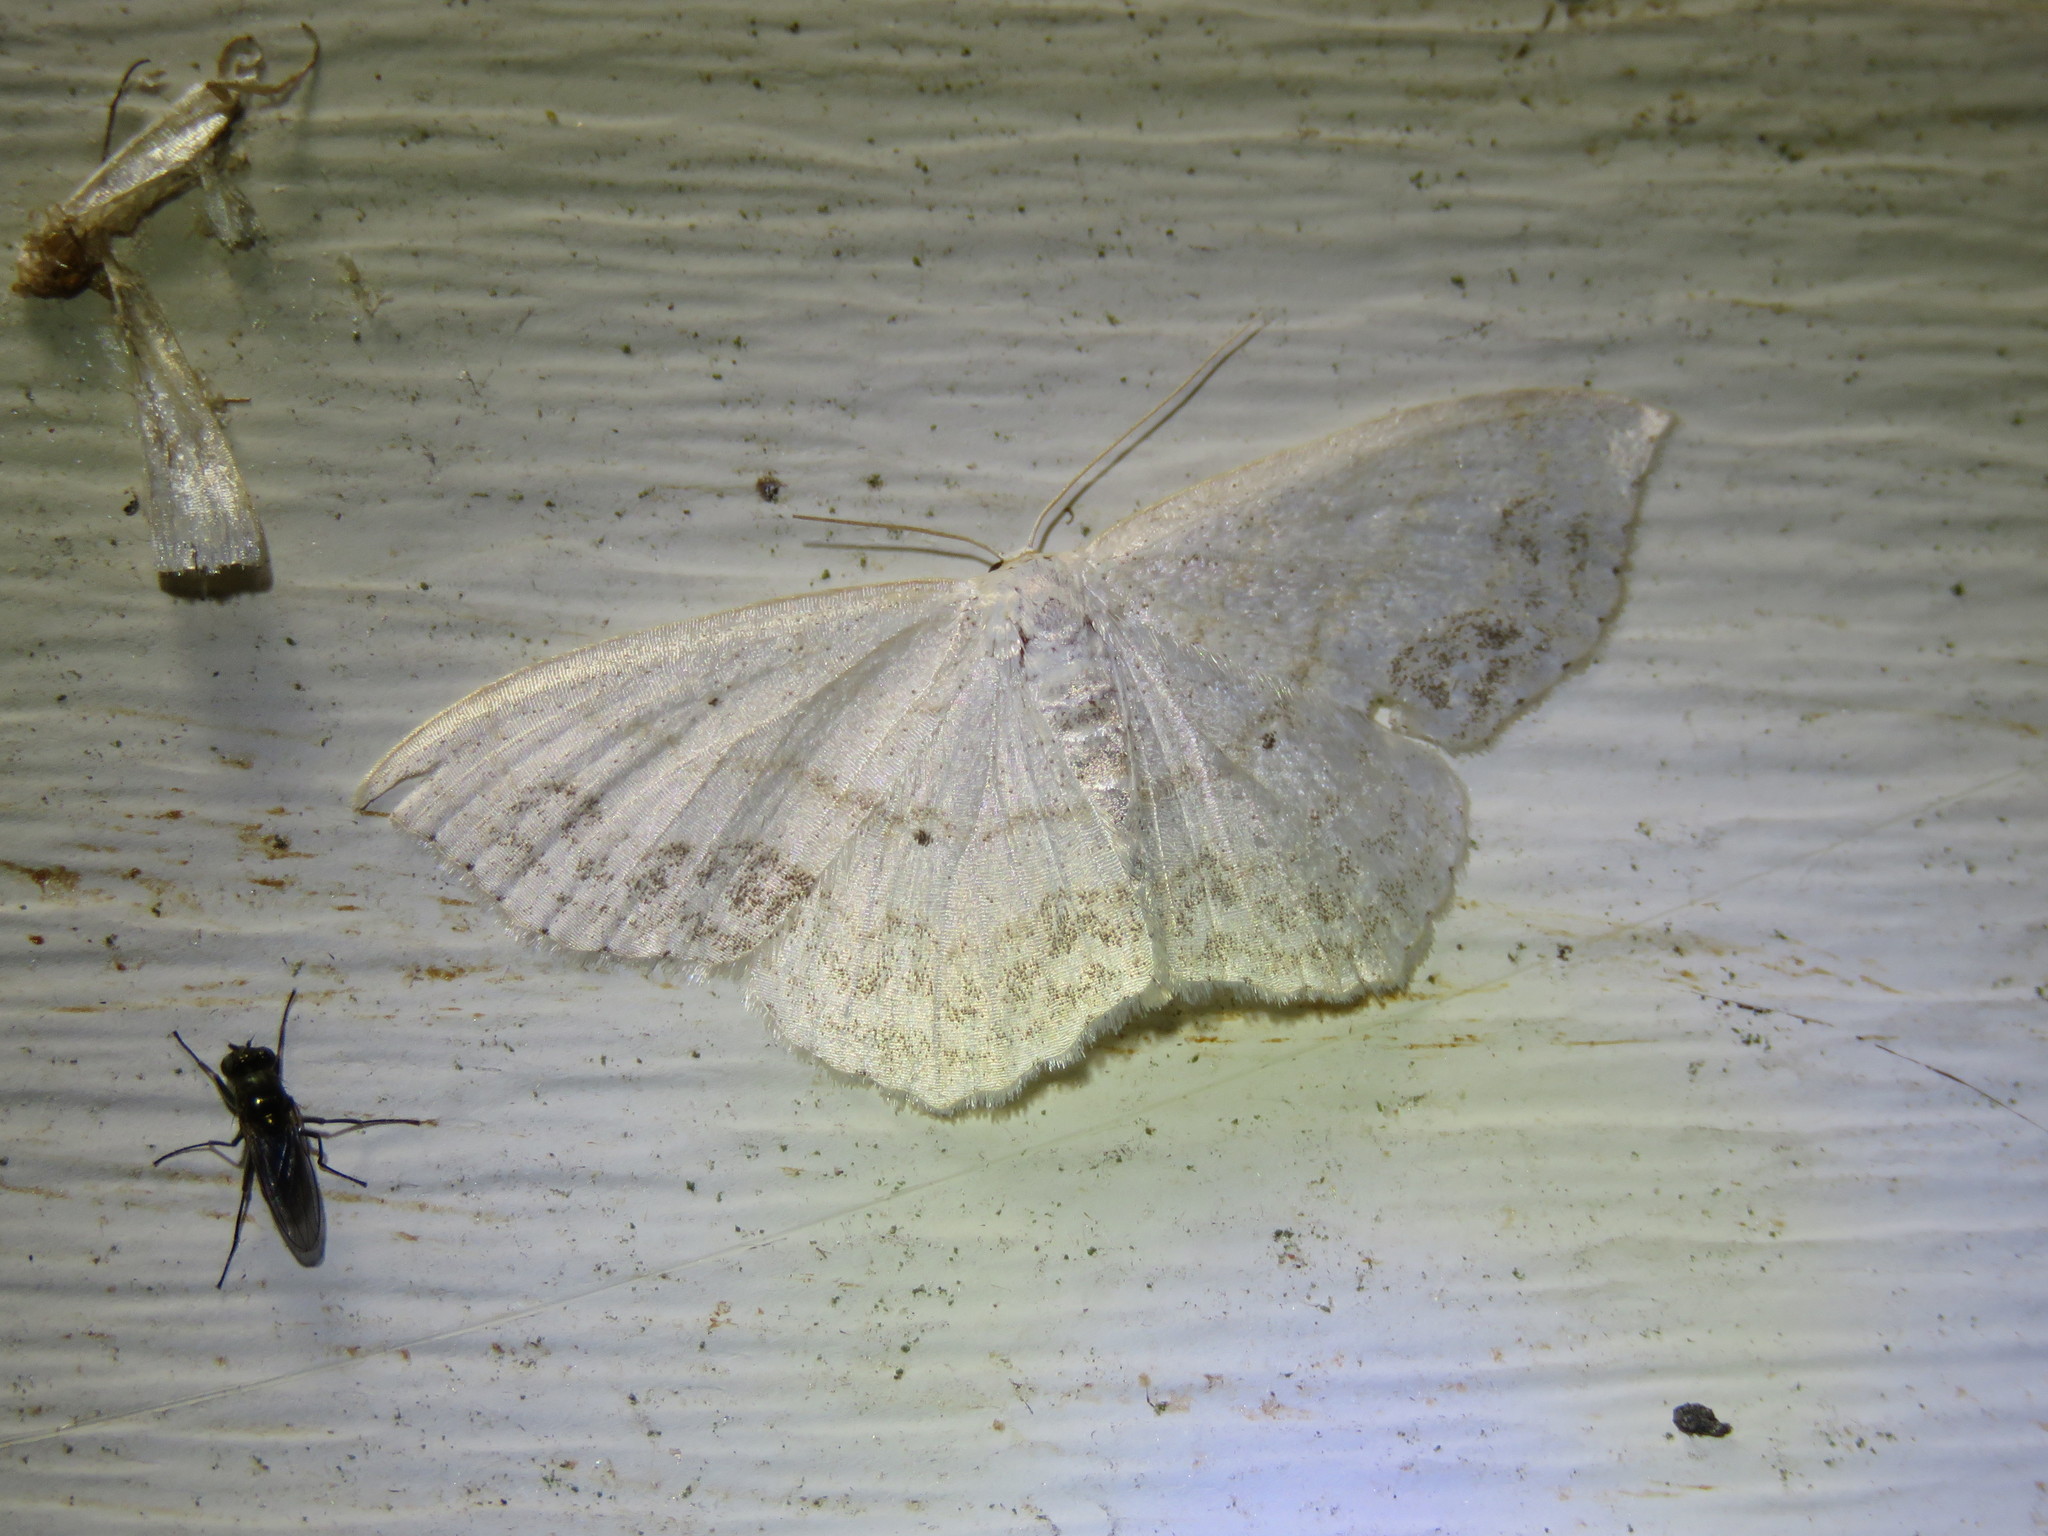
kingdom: Animalia
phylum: Arthropoda
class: Insecta
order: Lepidoptera
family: Geometridae
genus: Scopula
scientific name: Scopula limboundata
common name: Large lace border
